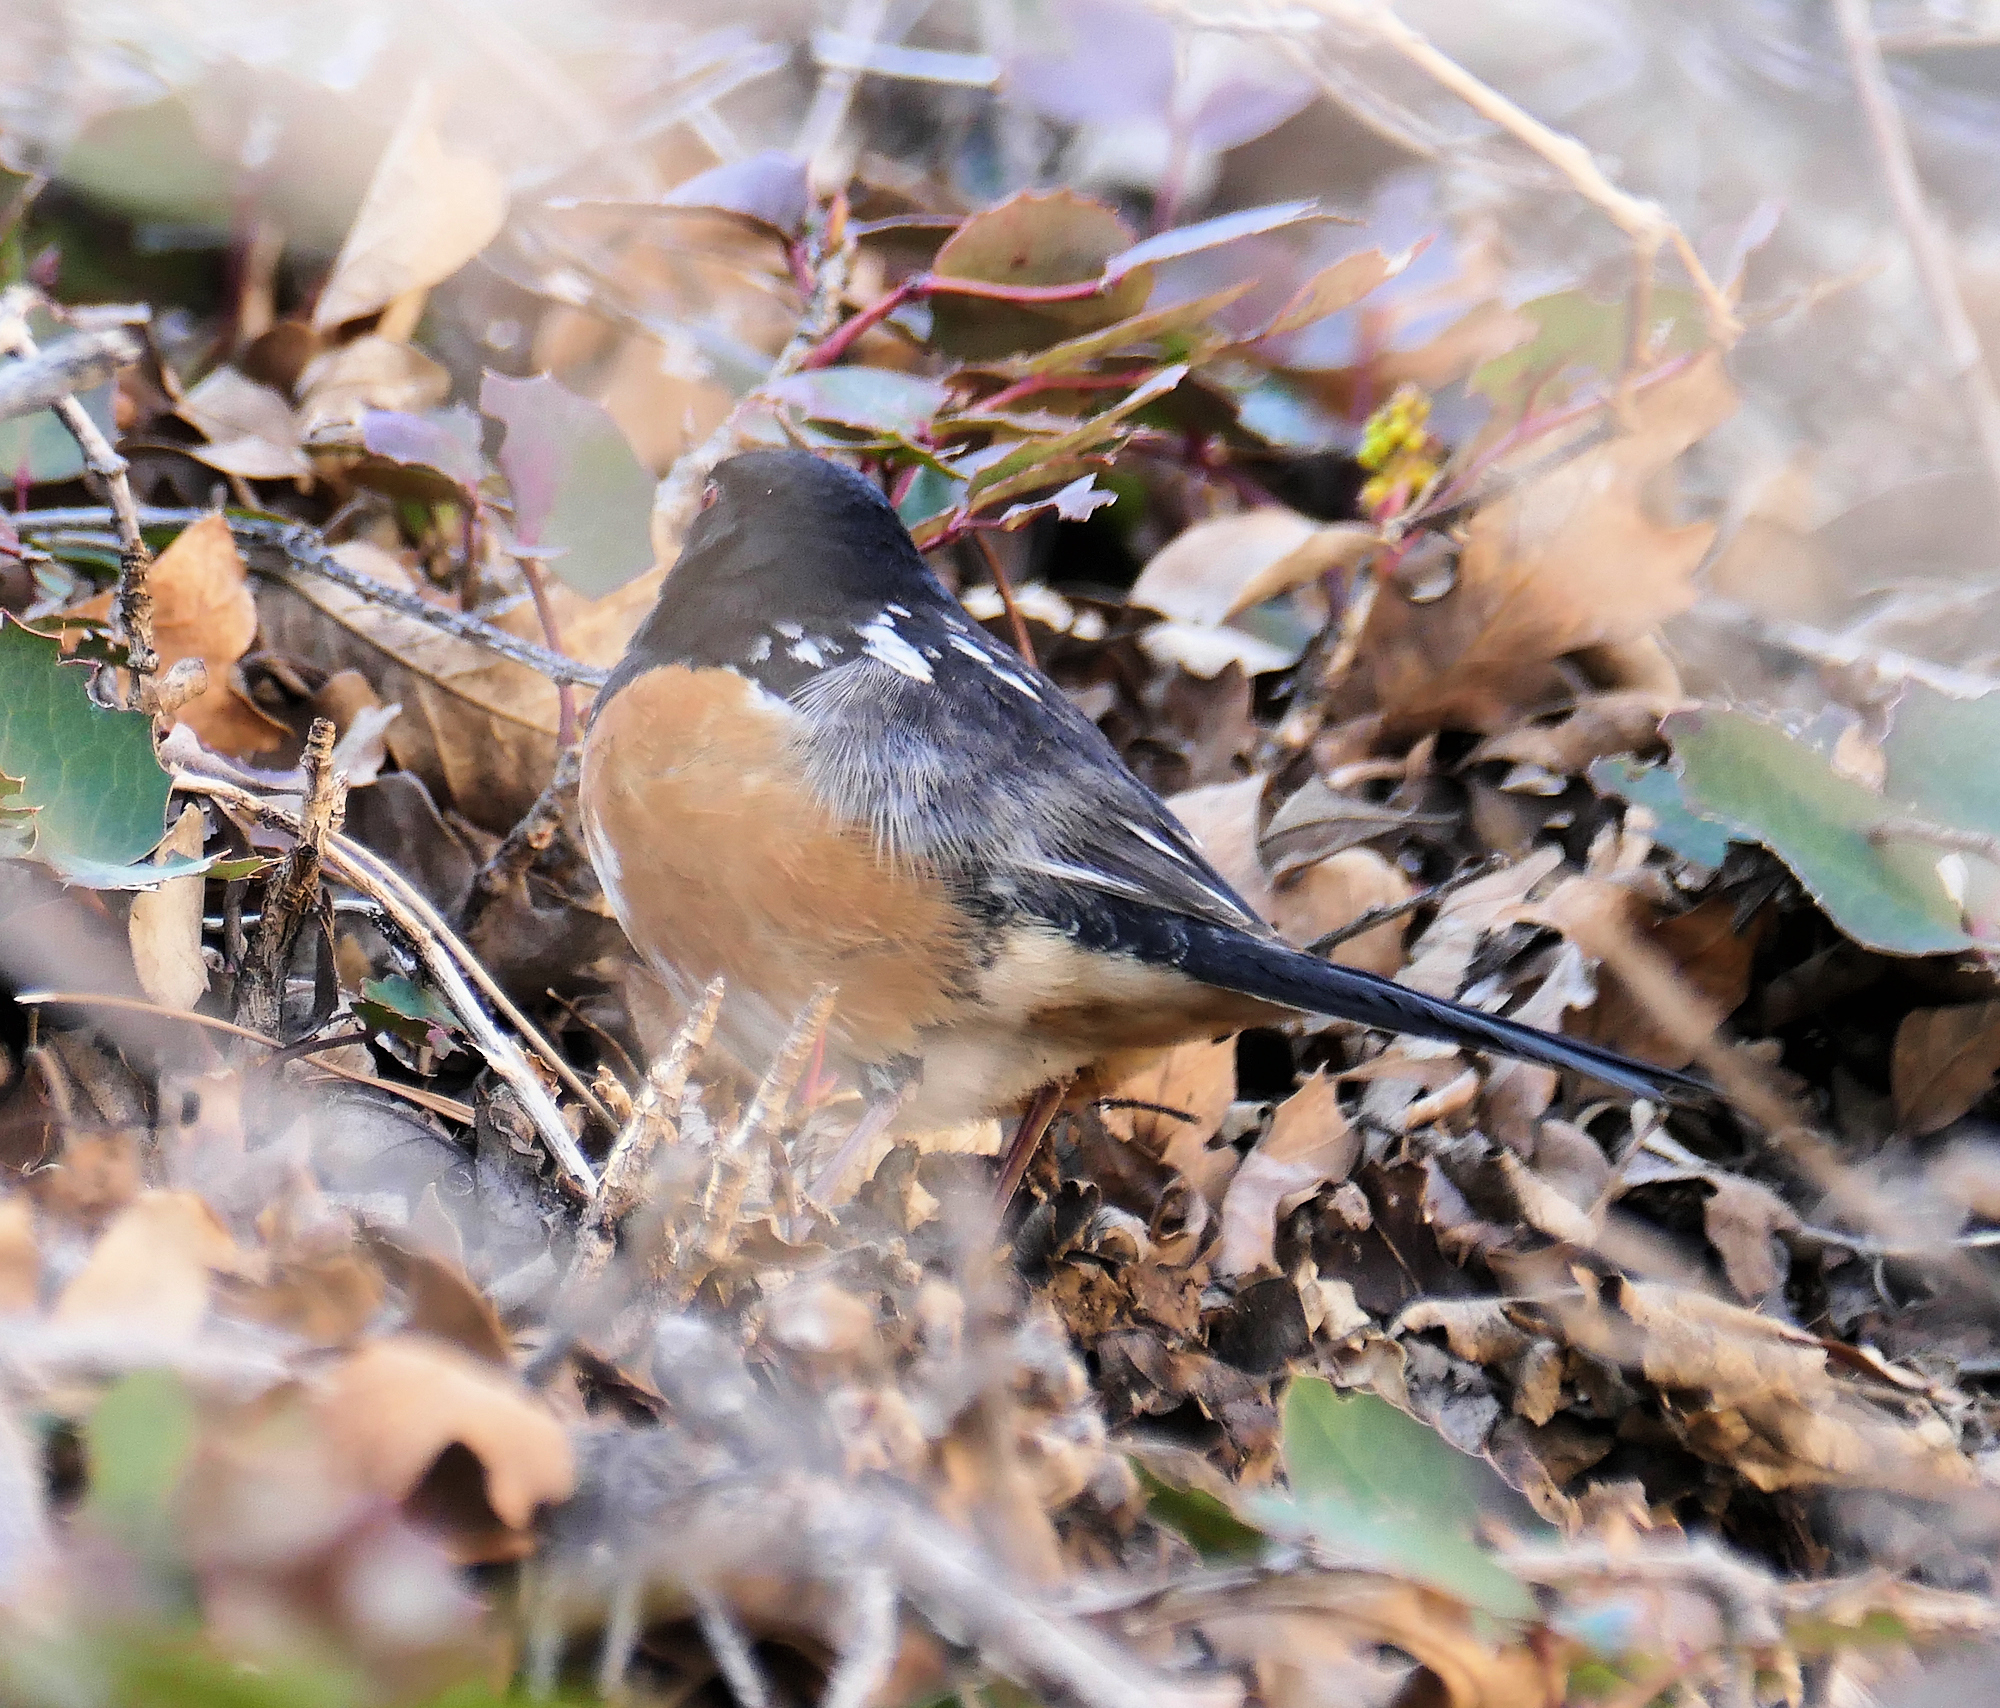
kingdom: Animalia
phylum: Chordata
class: Aves
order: Passeriformes
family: Passerellidae
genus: Pipilo
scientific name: Pipilo maculatus
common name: Spotted towhee
